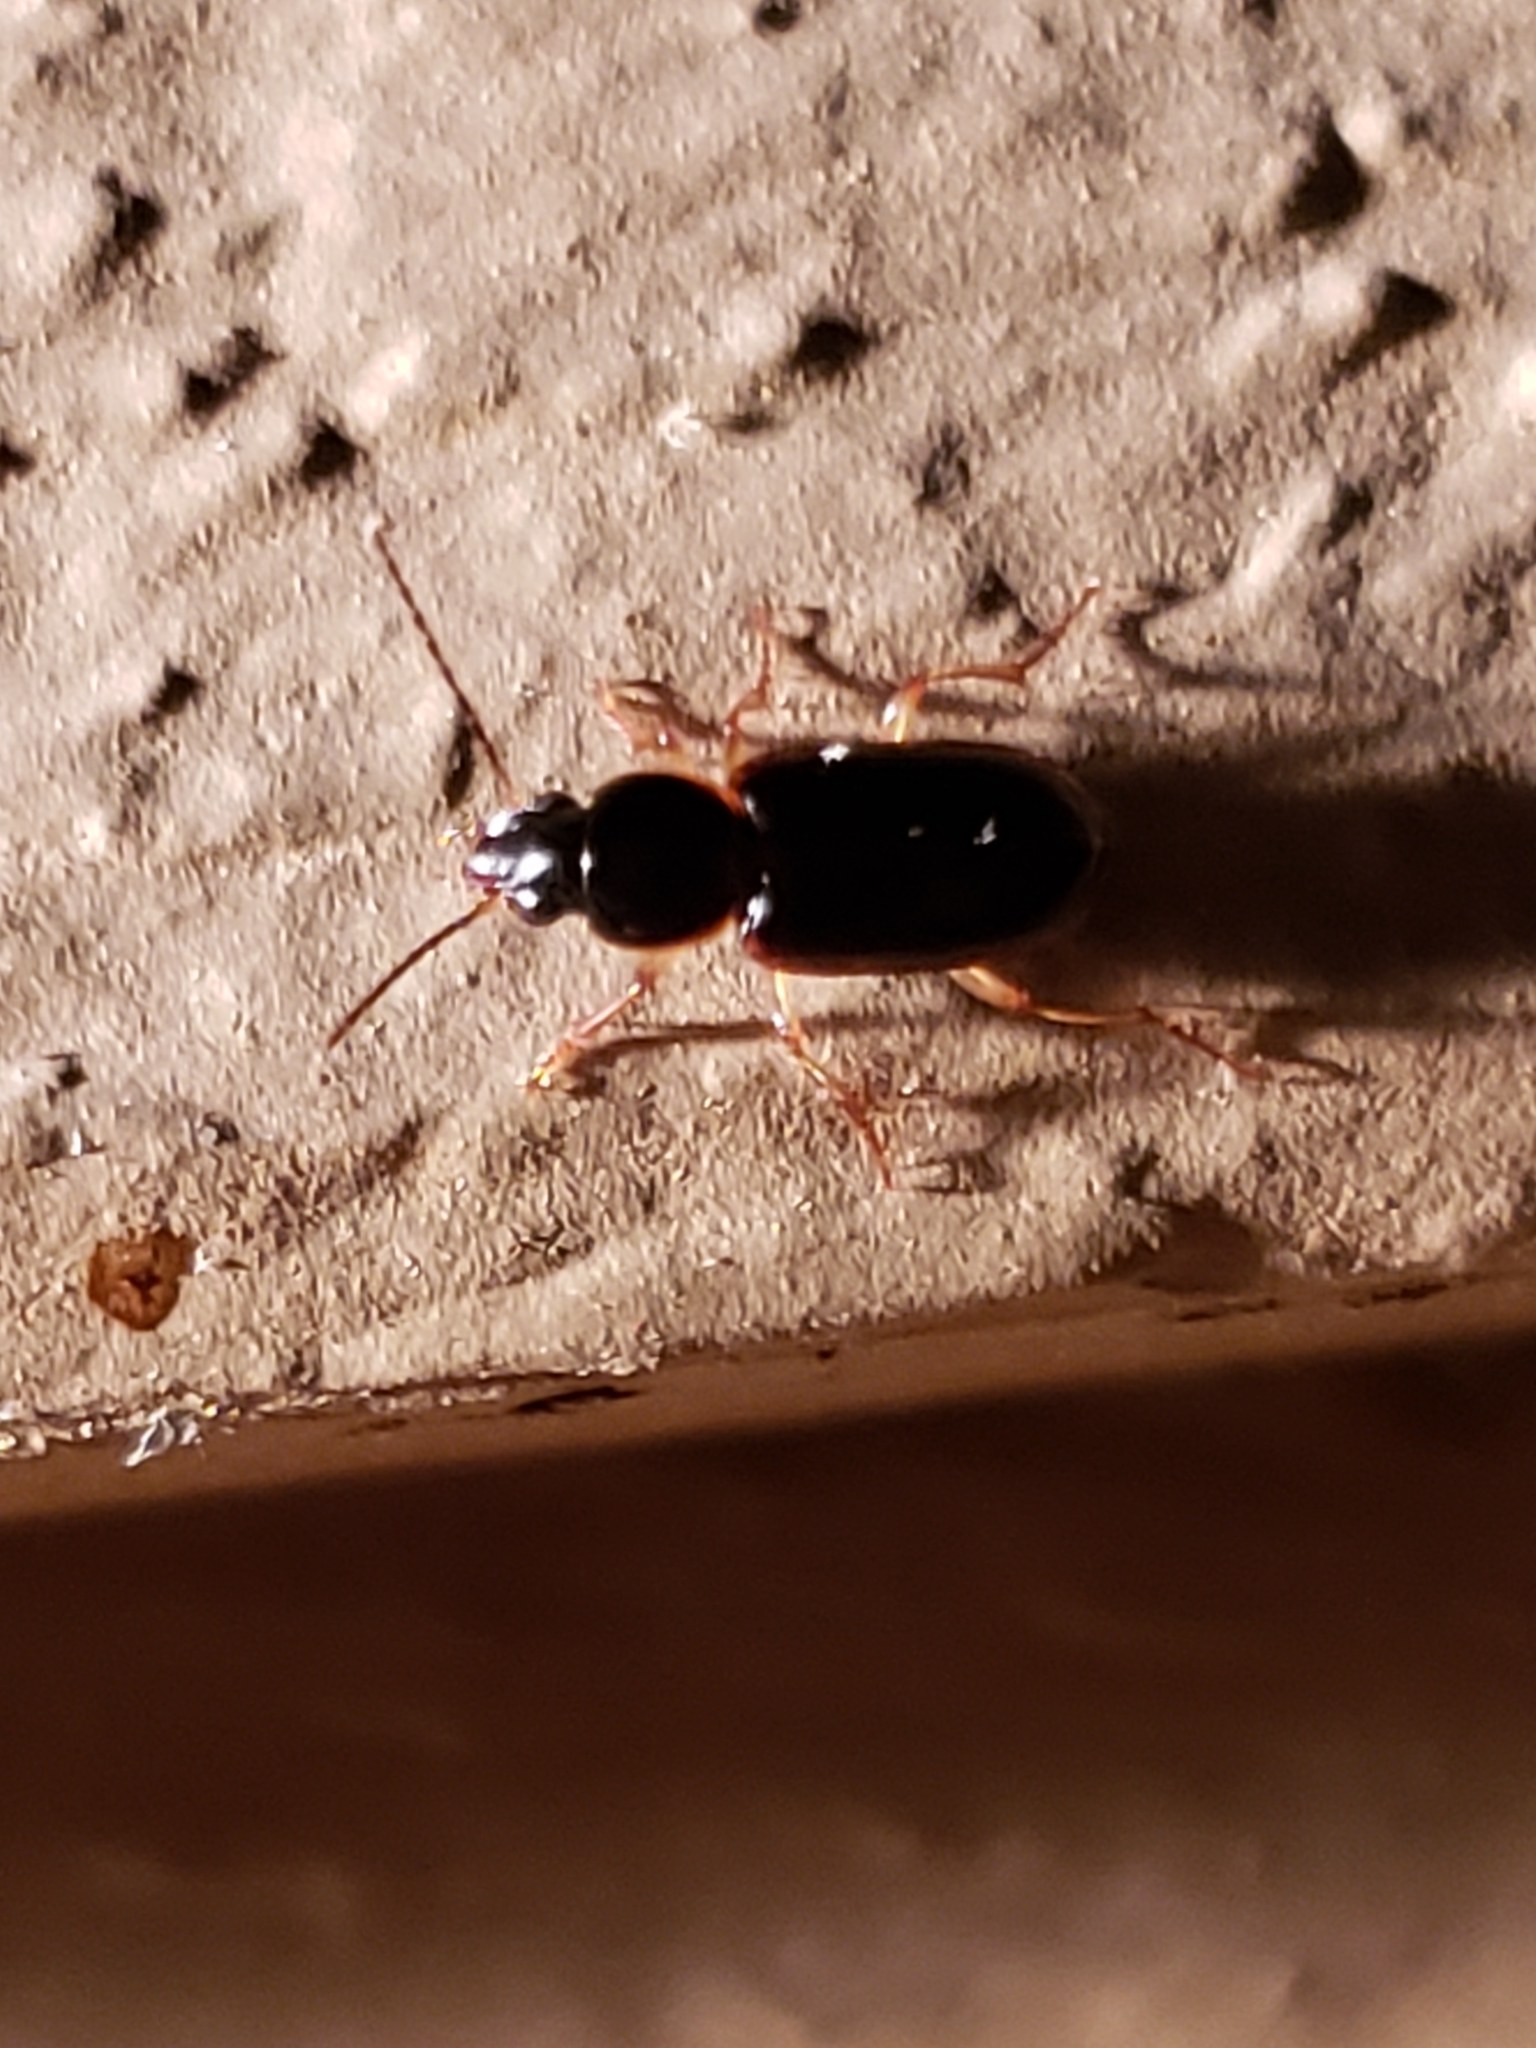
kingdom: Animalia
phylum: Arthropoda
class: Insecta
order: Coleoptera
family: Carabidae
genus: Stenolophus
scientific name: Stenolophus ochropezus
